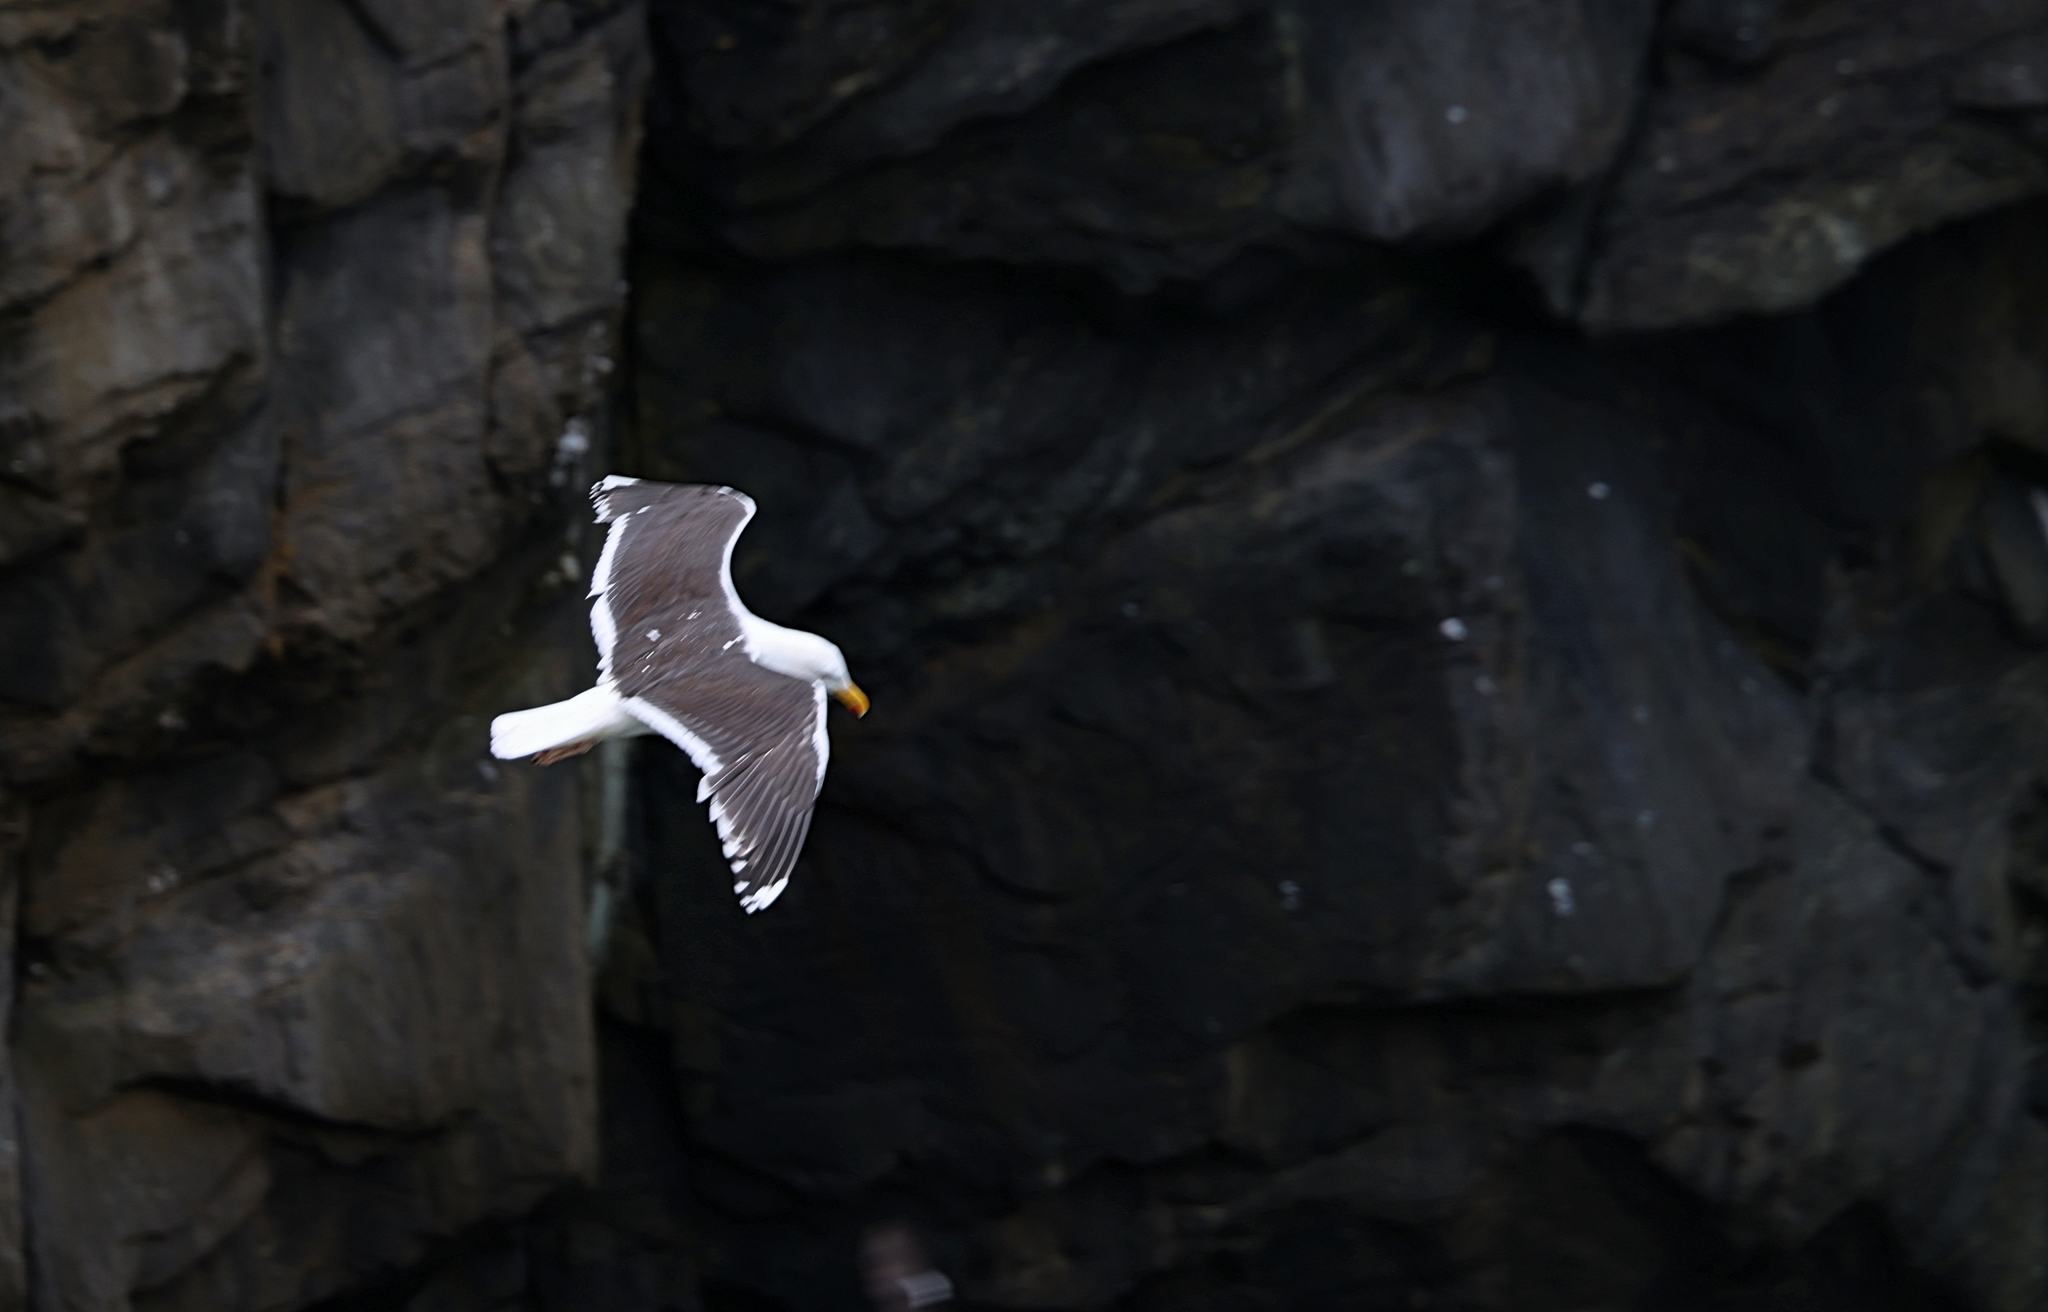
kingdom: Animalia
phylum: Chordata
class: Aves
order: Charadriiformes
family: Laridae
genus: Larus
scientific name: Larus marinus
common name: Great black-backed gull
